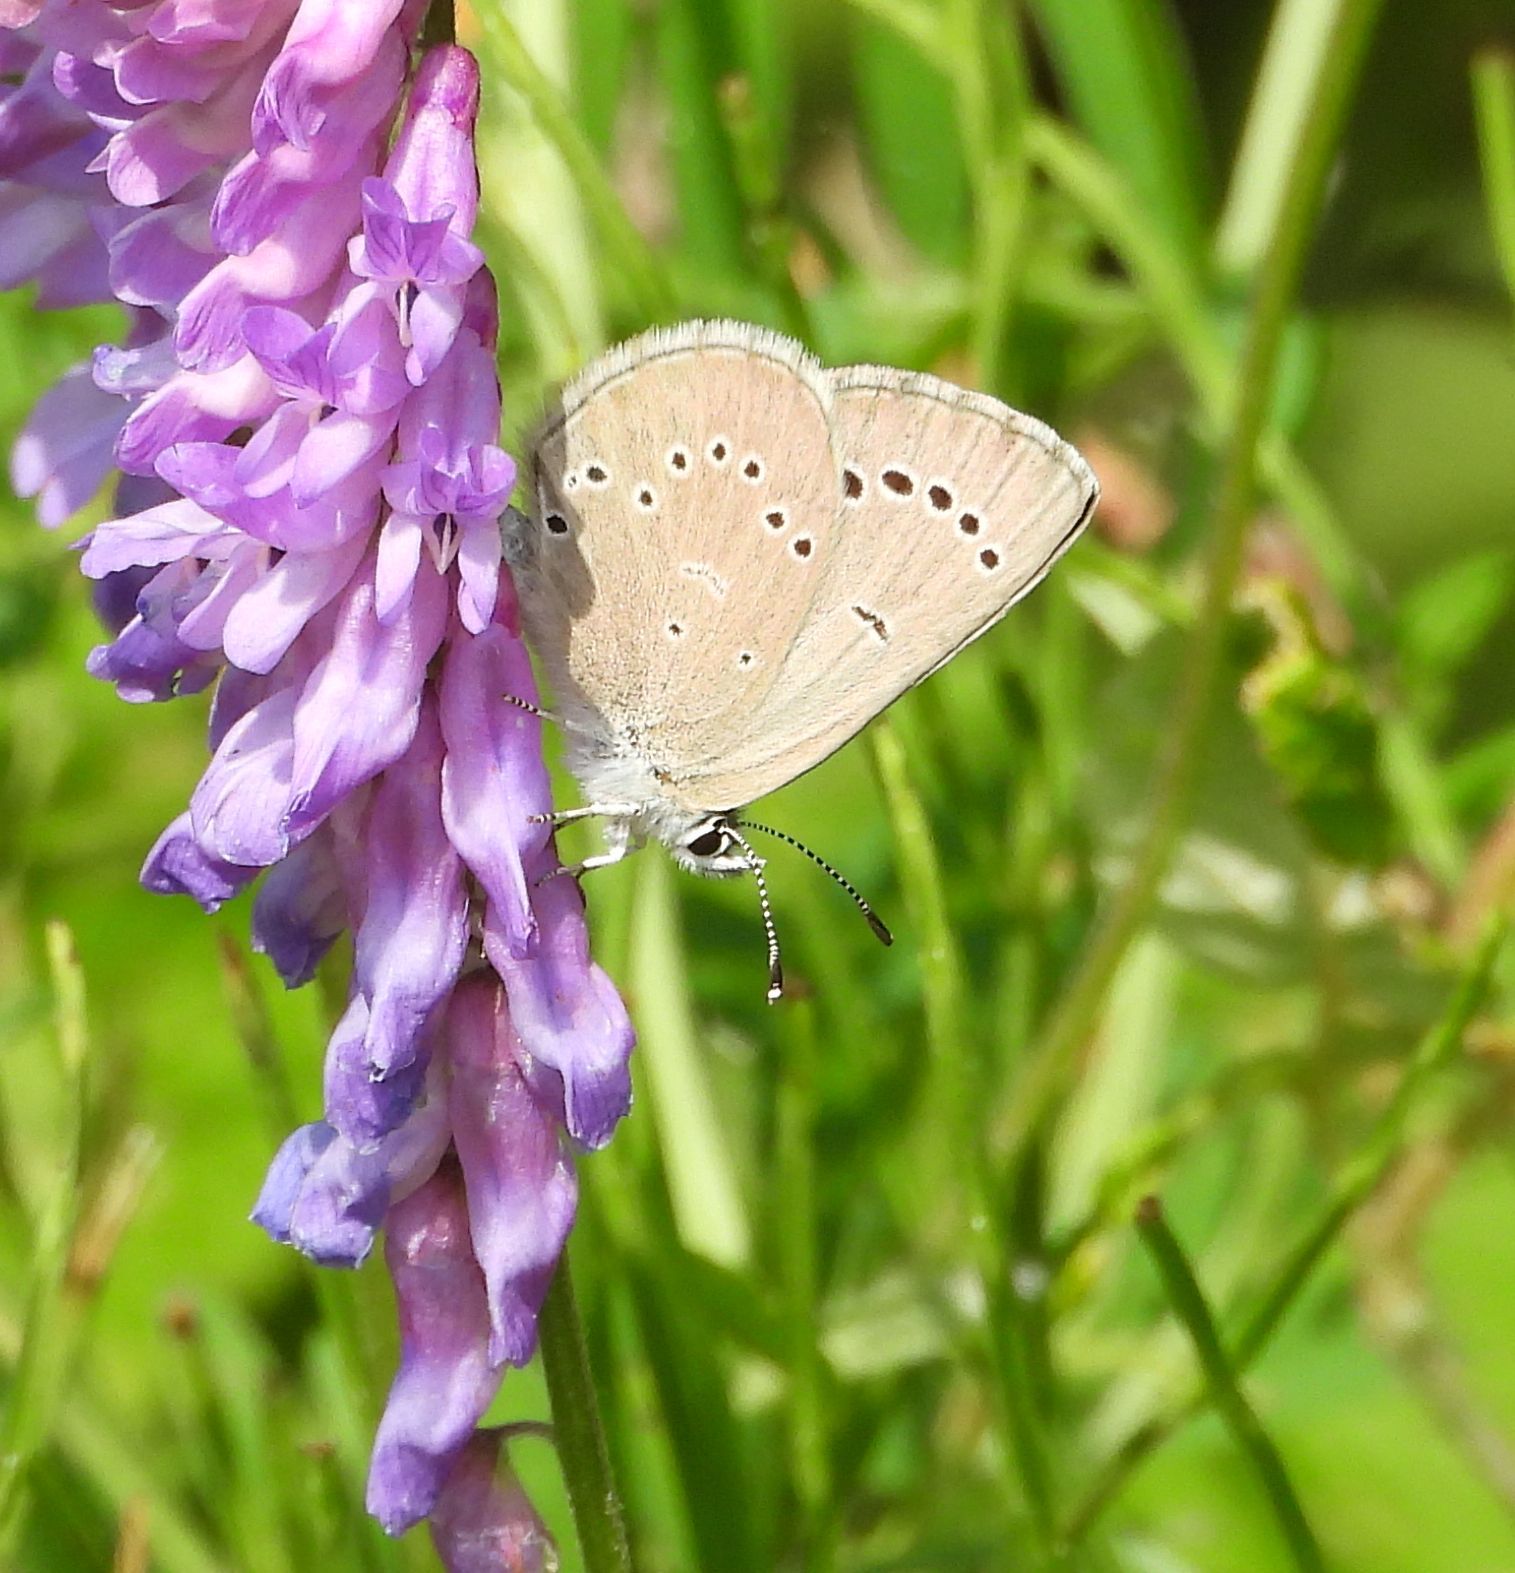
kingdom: Animalia
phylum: Arthropoda
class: Insecta
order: Lepidoptera
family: Lycaenidae
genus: Glaucopsyche
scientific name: Glaucopsyche lygdamus
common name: Silvery blue
